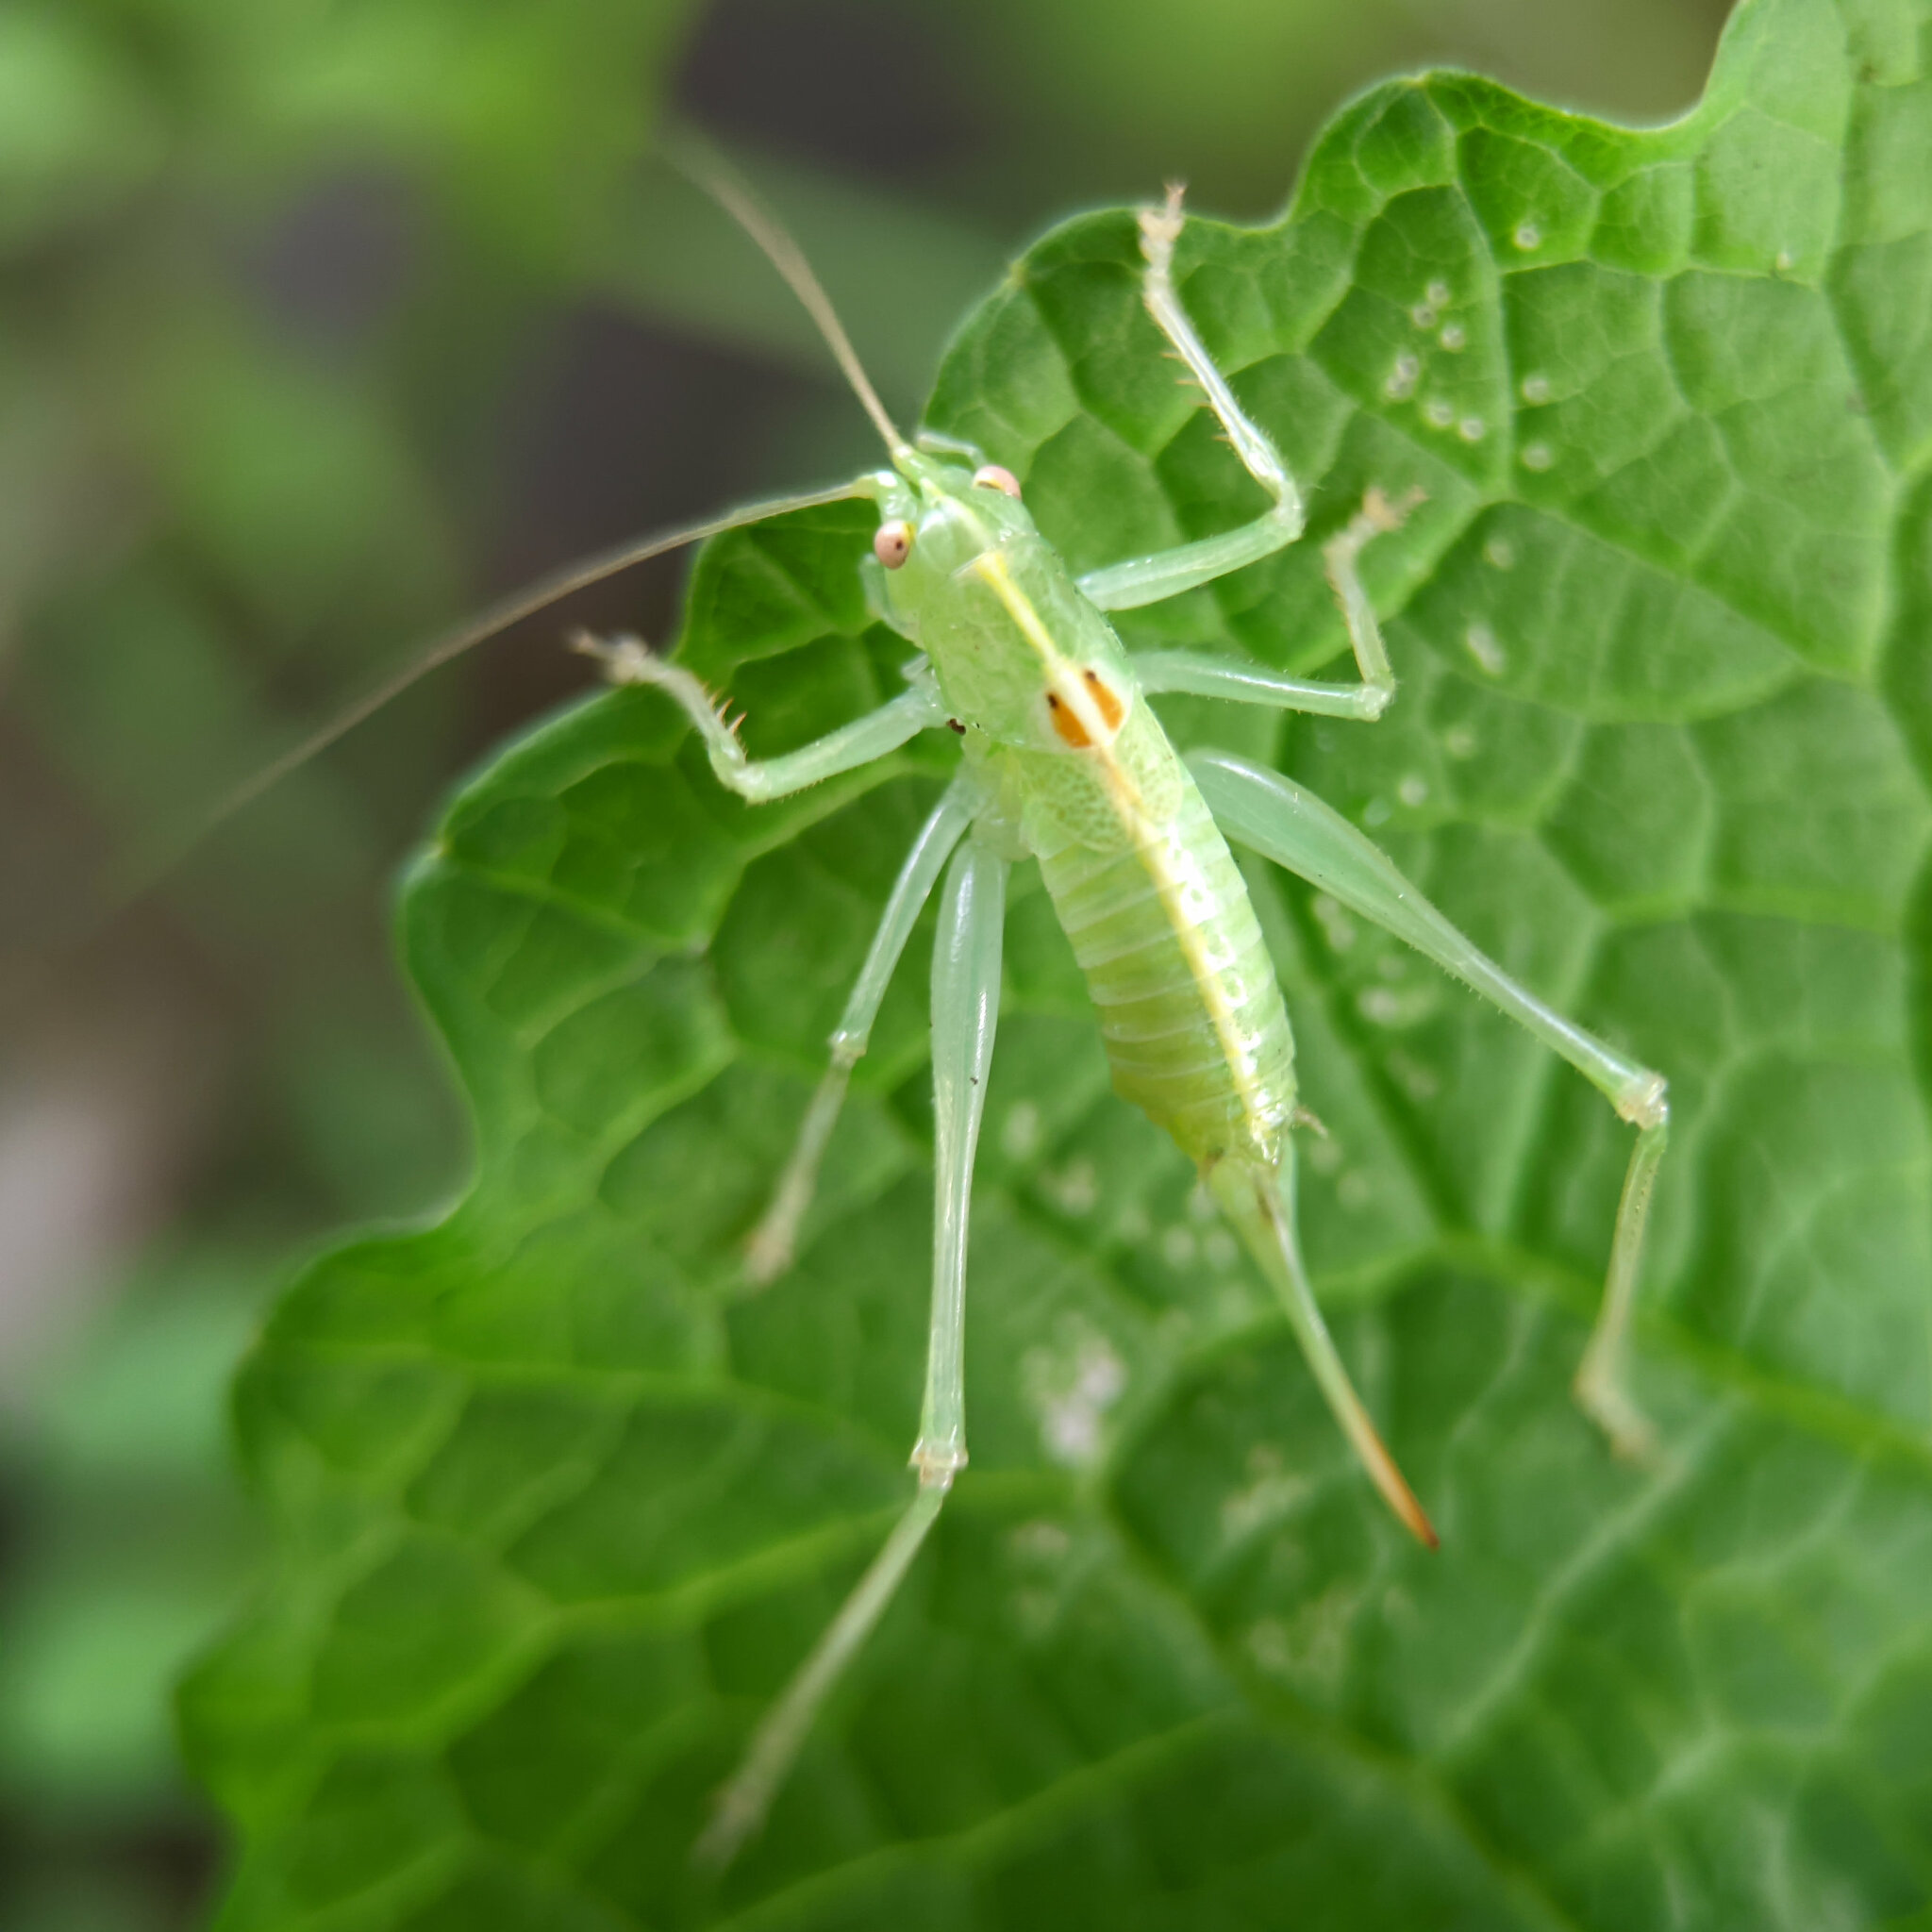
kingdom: Animalia
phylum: Arthropoda
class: Insecta
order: Orthoptera
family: Tettigoniidae
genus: Meconema
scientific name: Meconema meridionale
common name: Southern oak bush-cricket
